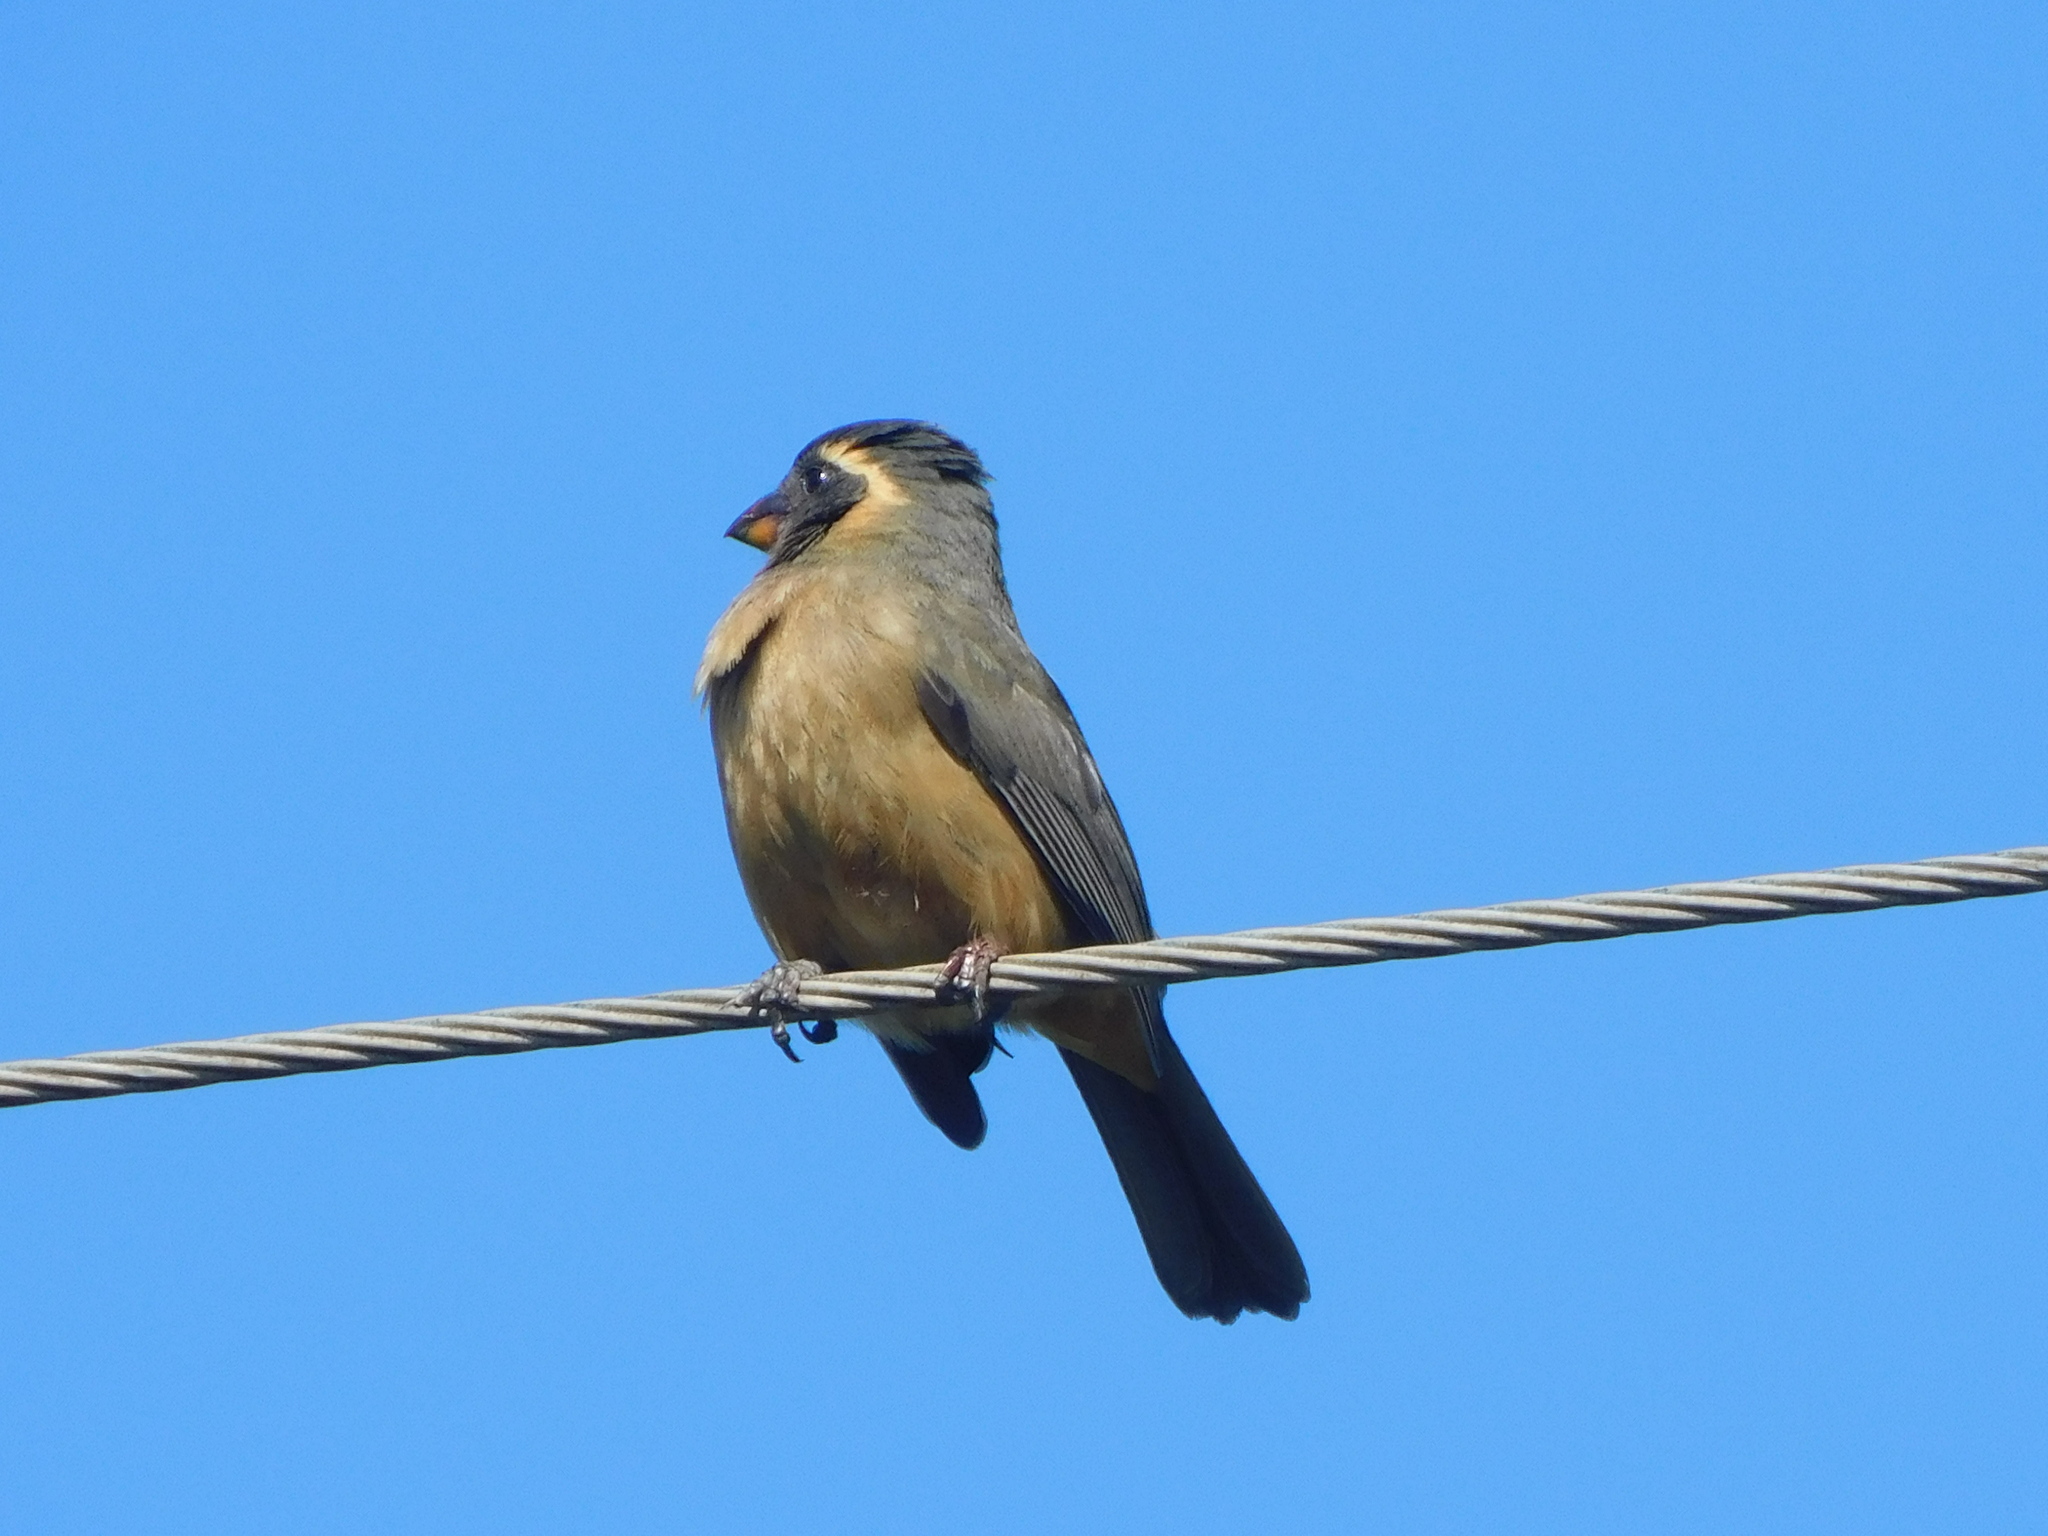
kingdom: Animalia
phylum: Chordata
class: Aves
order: Passeriformes
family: Thraupidae
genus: Saltator
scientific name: Saltator aurantiirostris
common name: Golden-billed saltator
